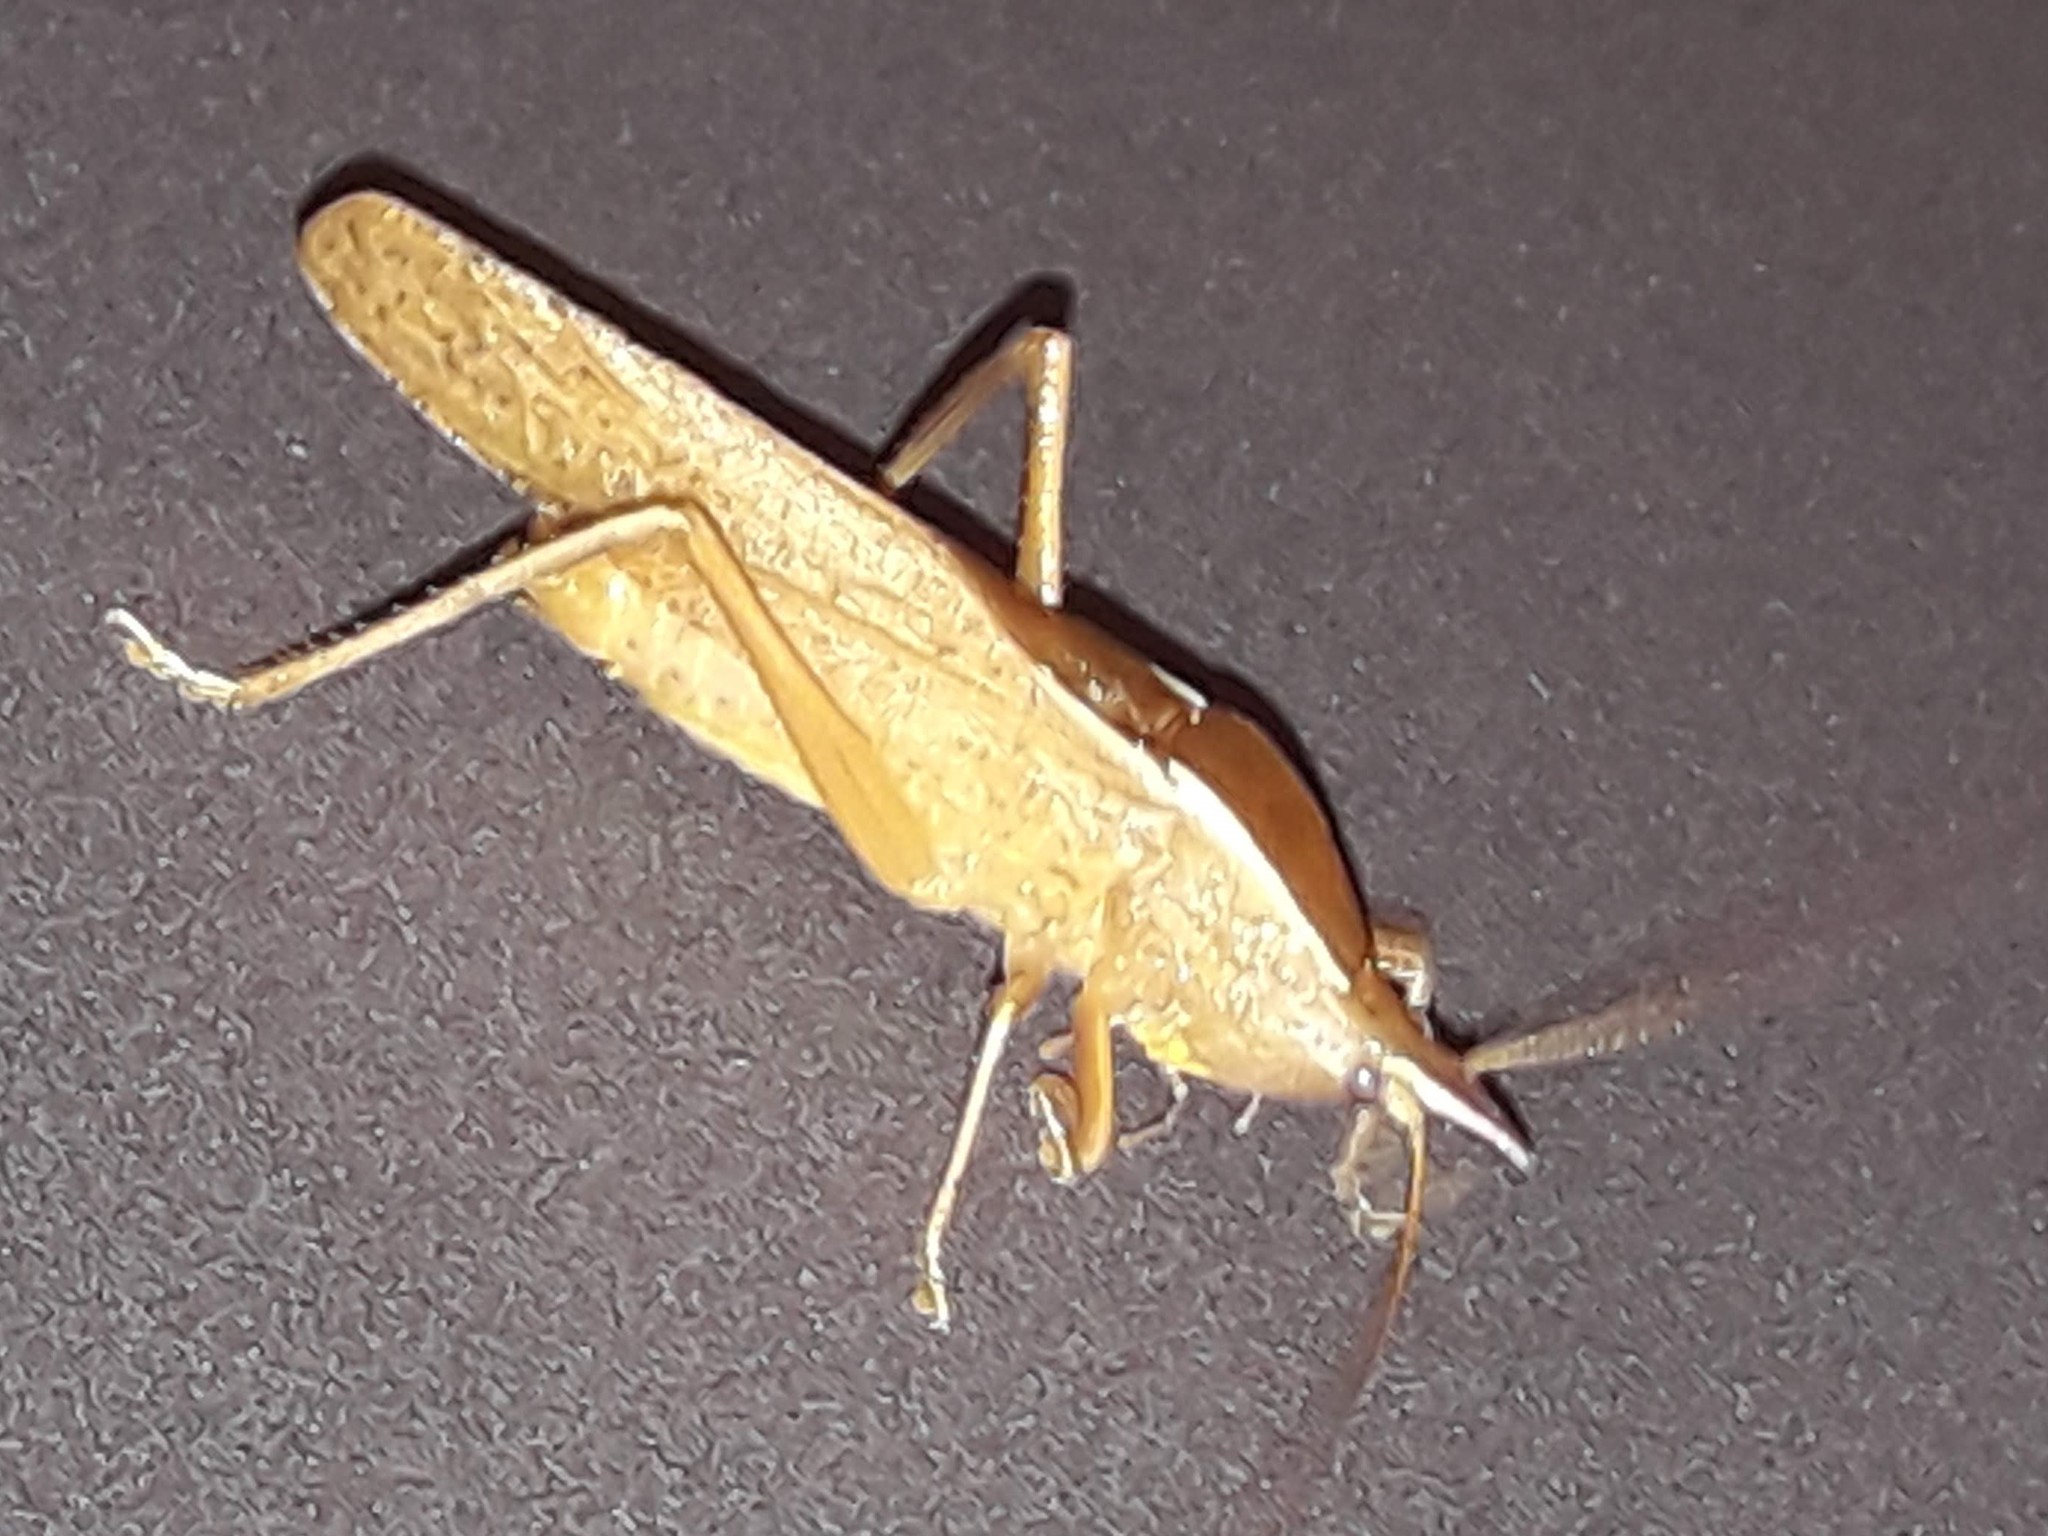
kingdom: Animalia
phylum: Arthropoda
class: Insecta
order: Orthoptera
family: Tettigoniidae
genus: Pyrgocorypha
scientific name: Pyrgocorypha rogersi
